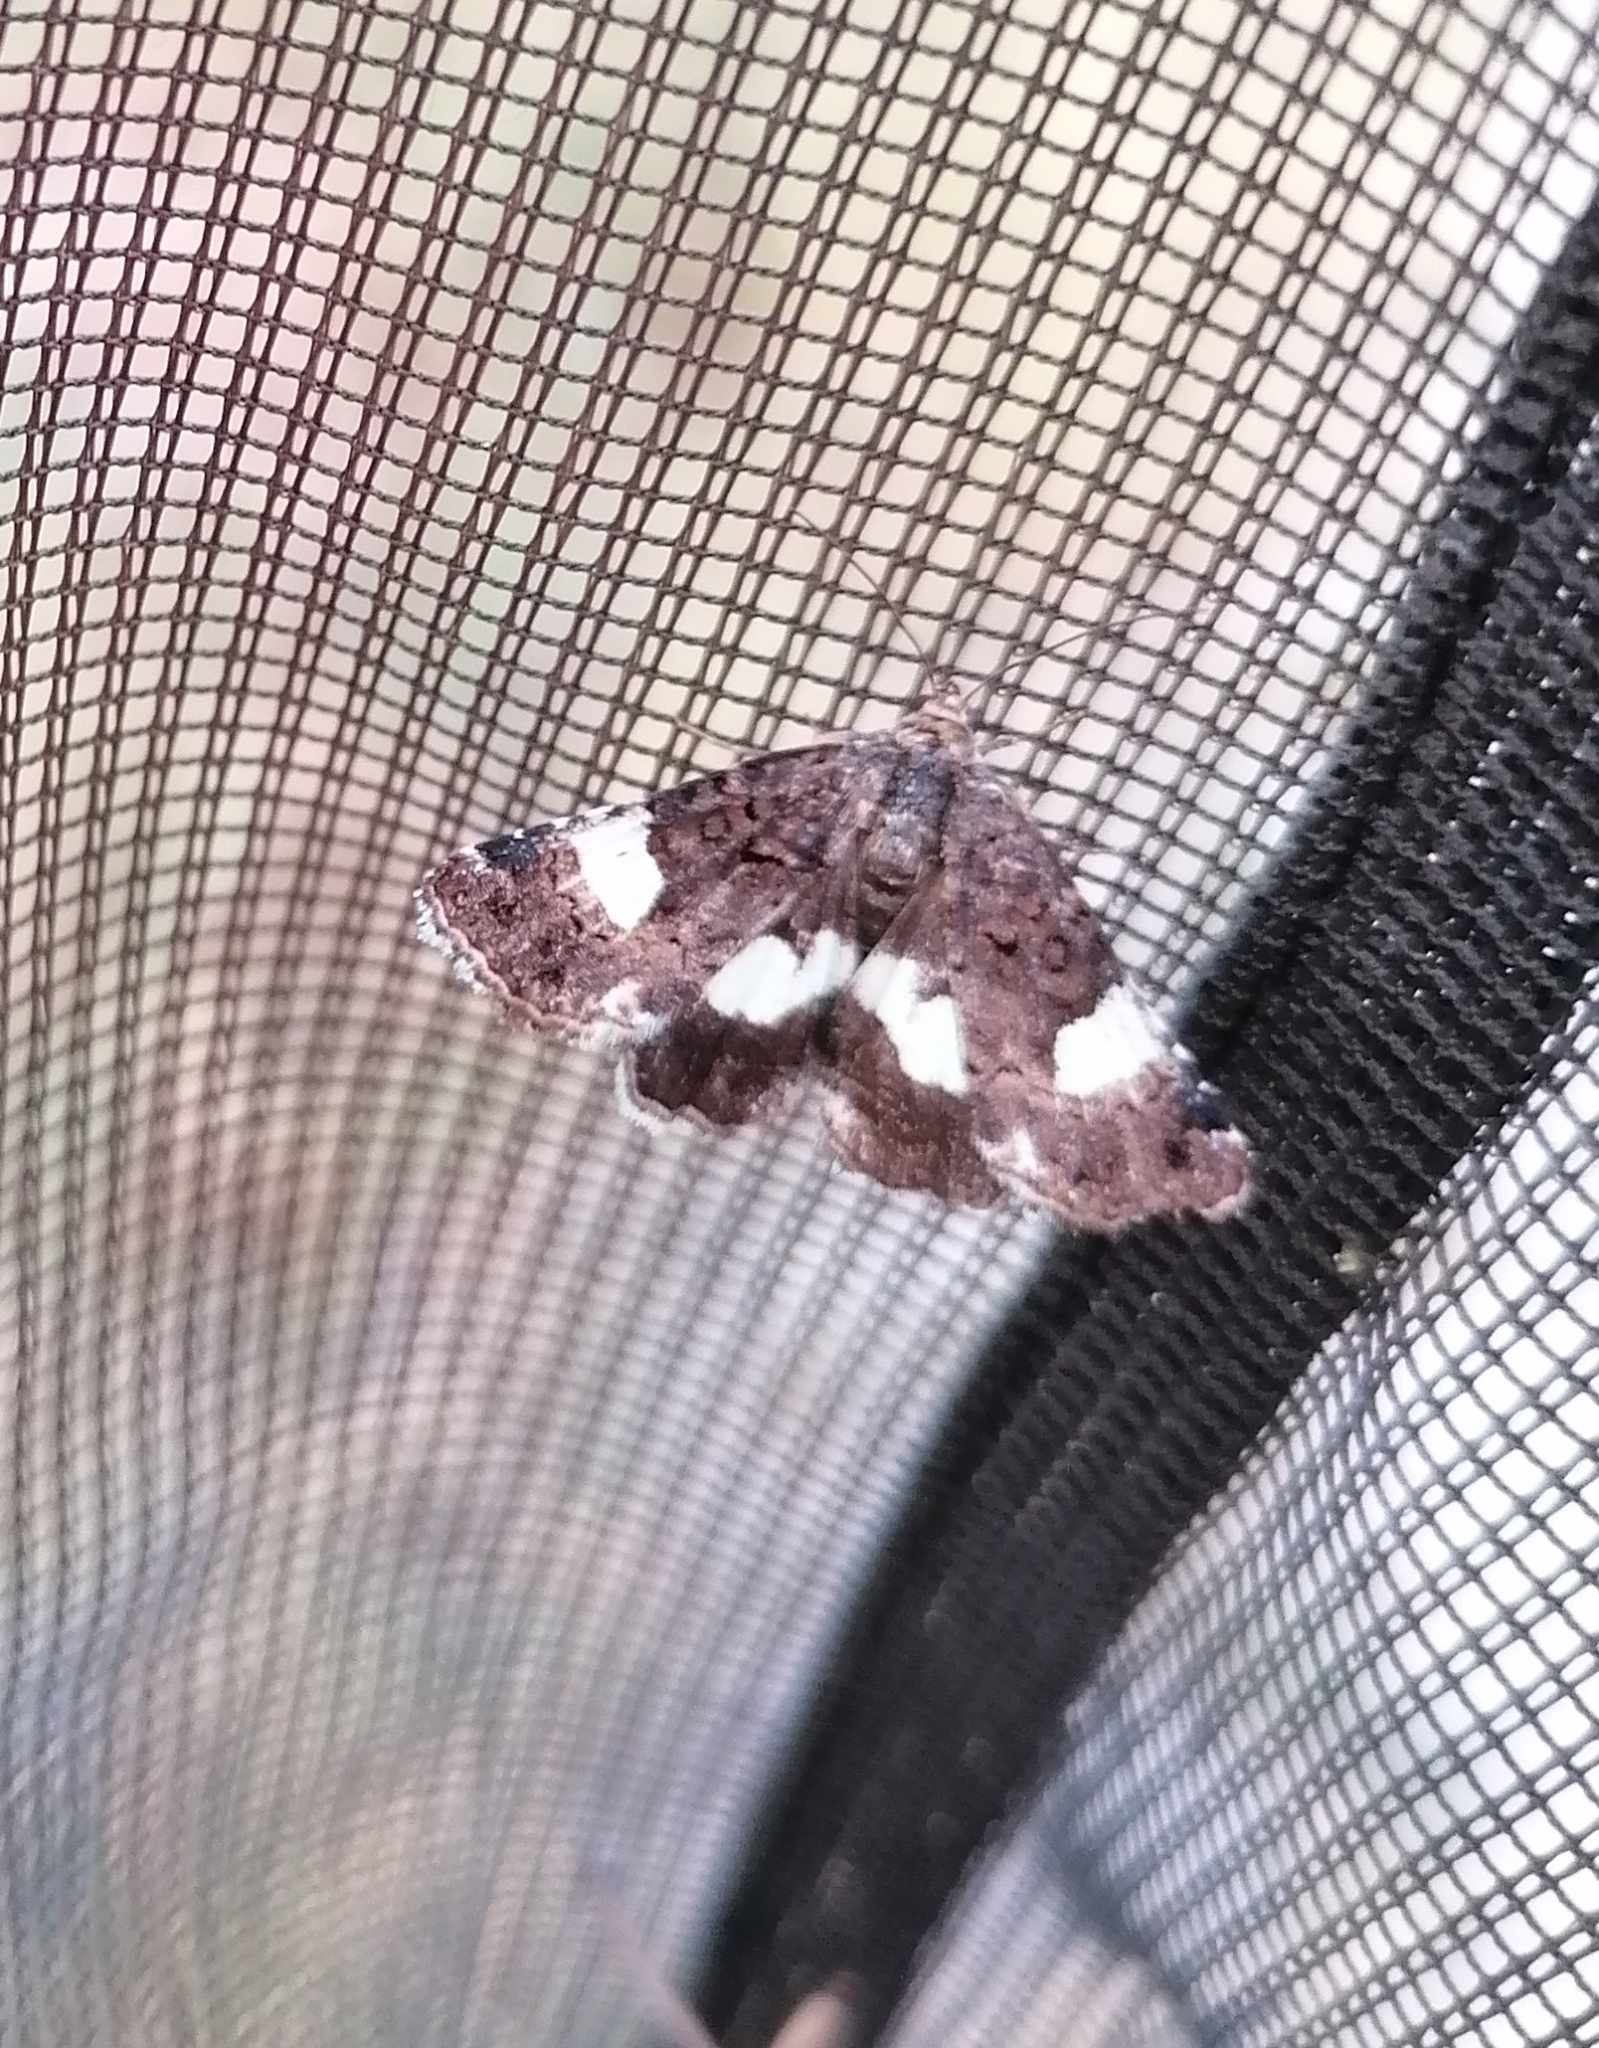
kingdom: Animalia
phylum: Arthropoda
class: Insecta
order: Lepidoptera
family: Erebidae
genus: Tyta
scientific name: Tyta luctuosa
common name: Four-spotted
